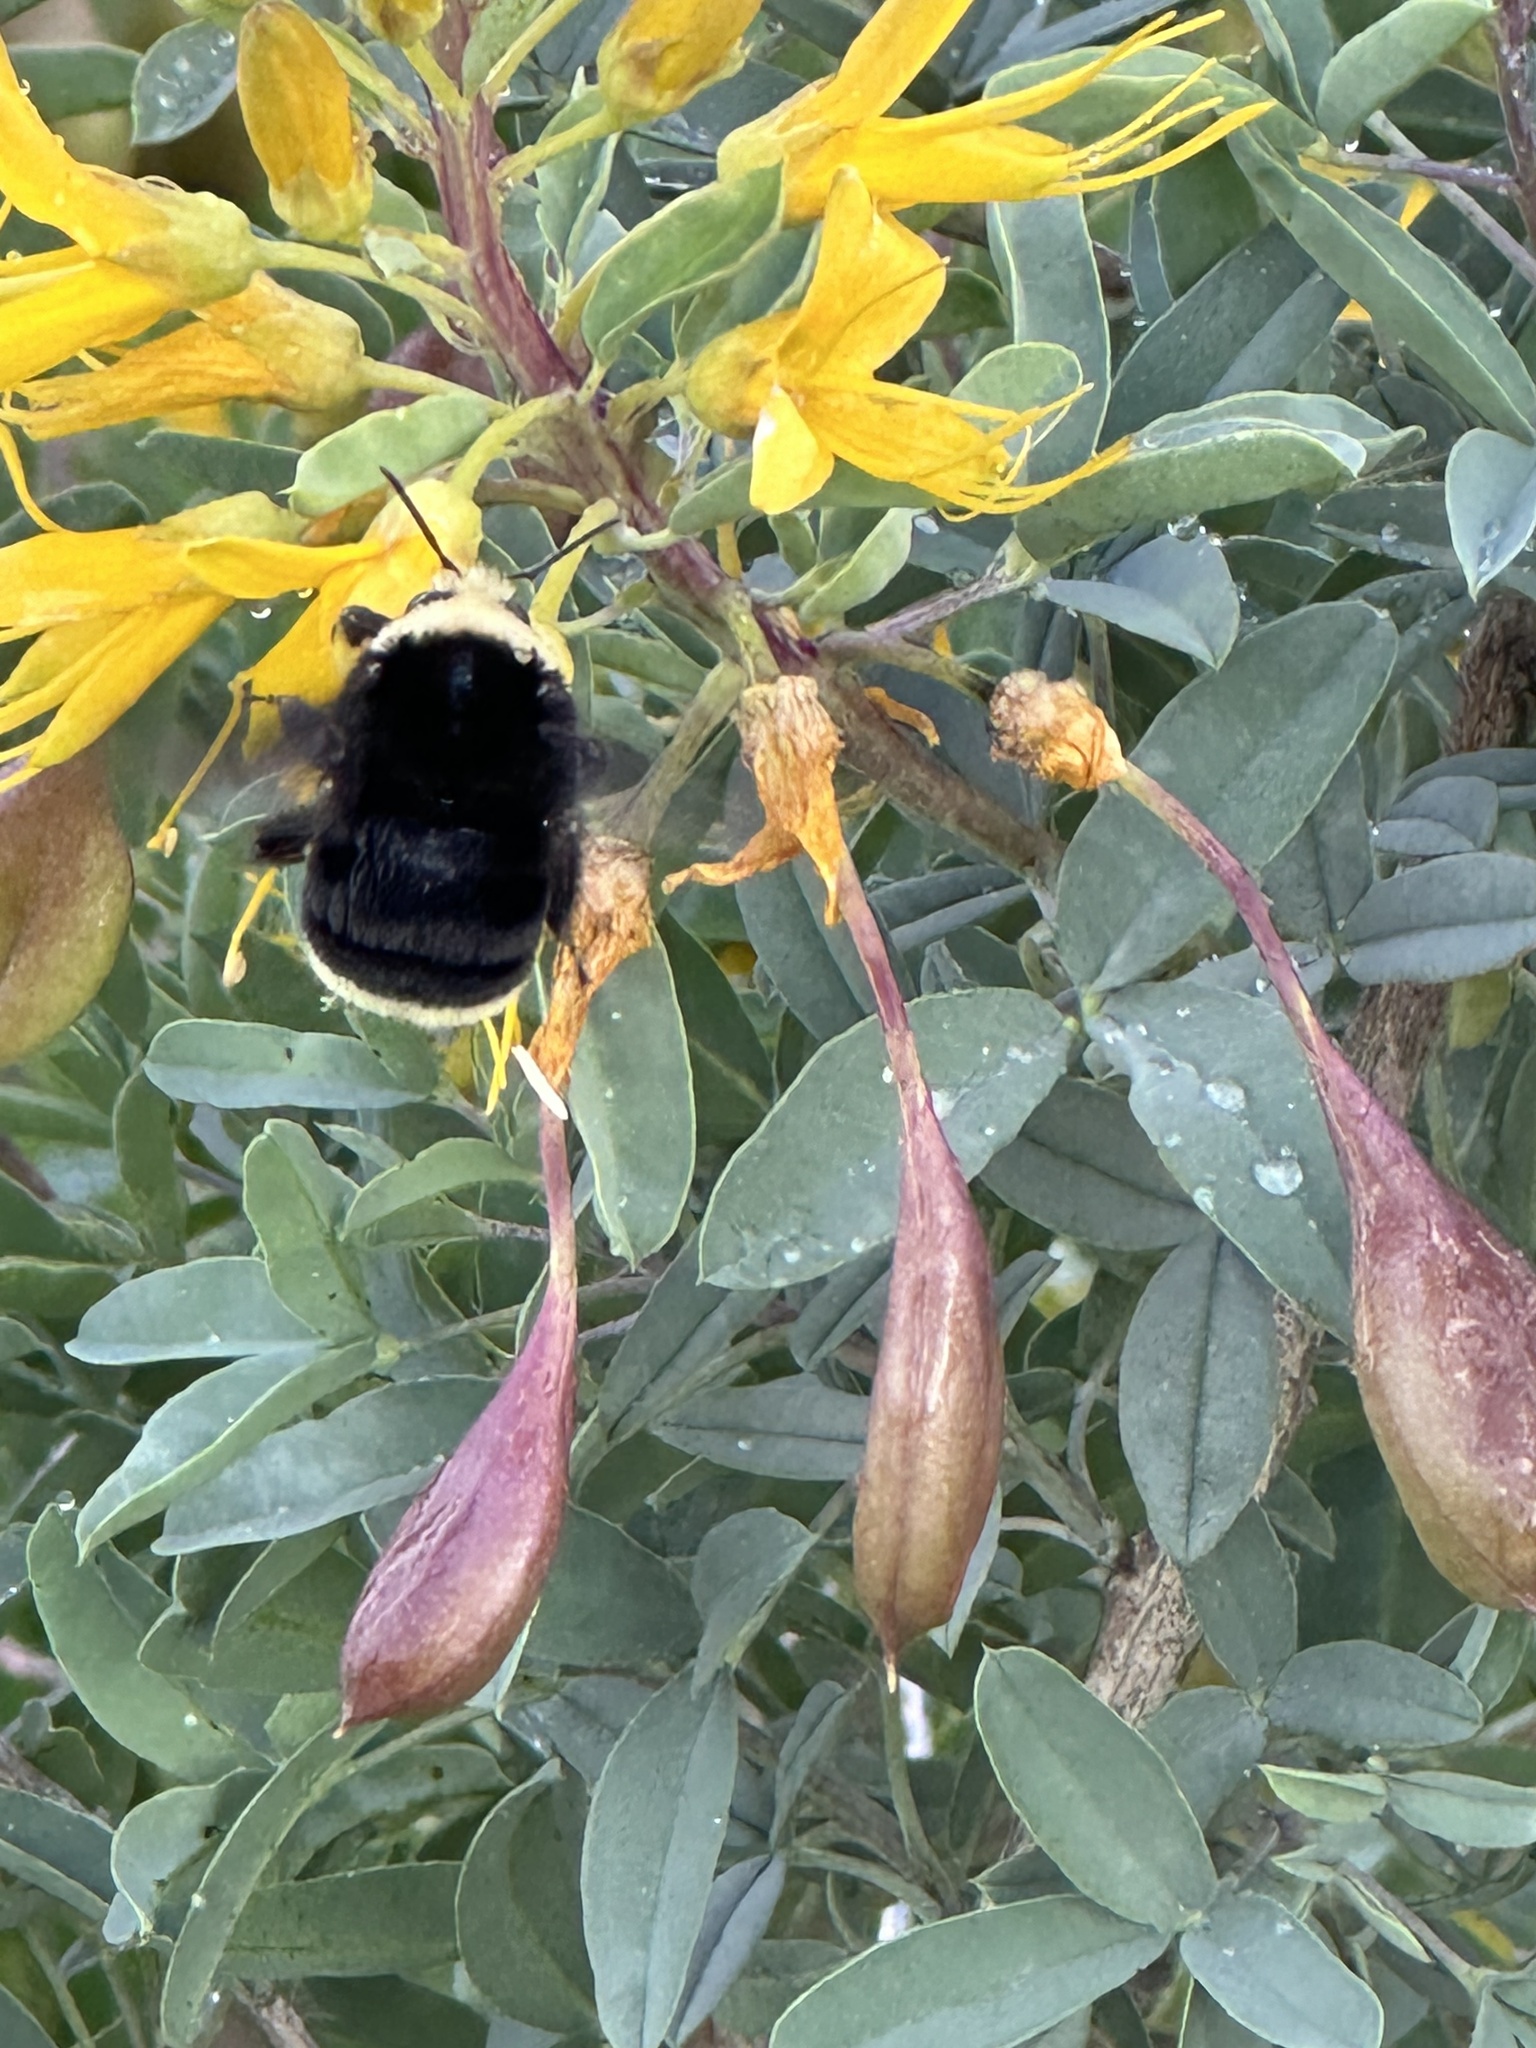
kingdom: Animalia
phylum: Arthropoda
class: Insecta
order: Hymenoptera
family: Apidae
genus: Pyrobombus
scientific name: Pyrobombus
